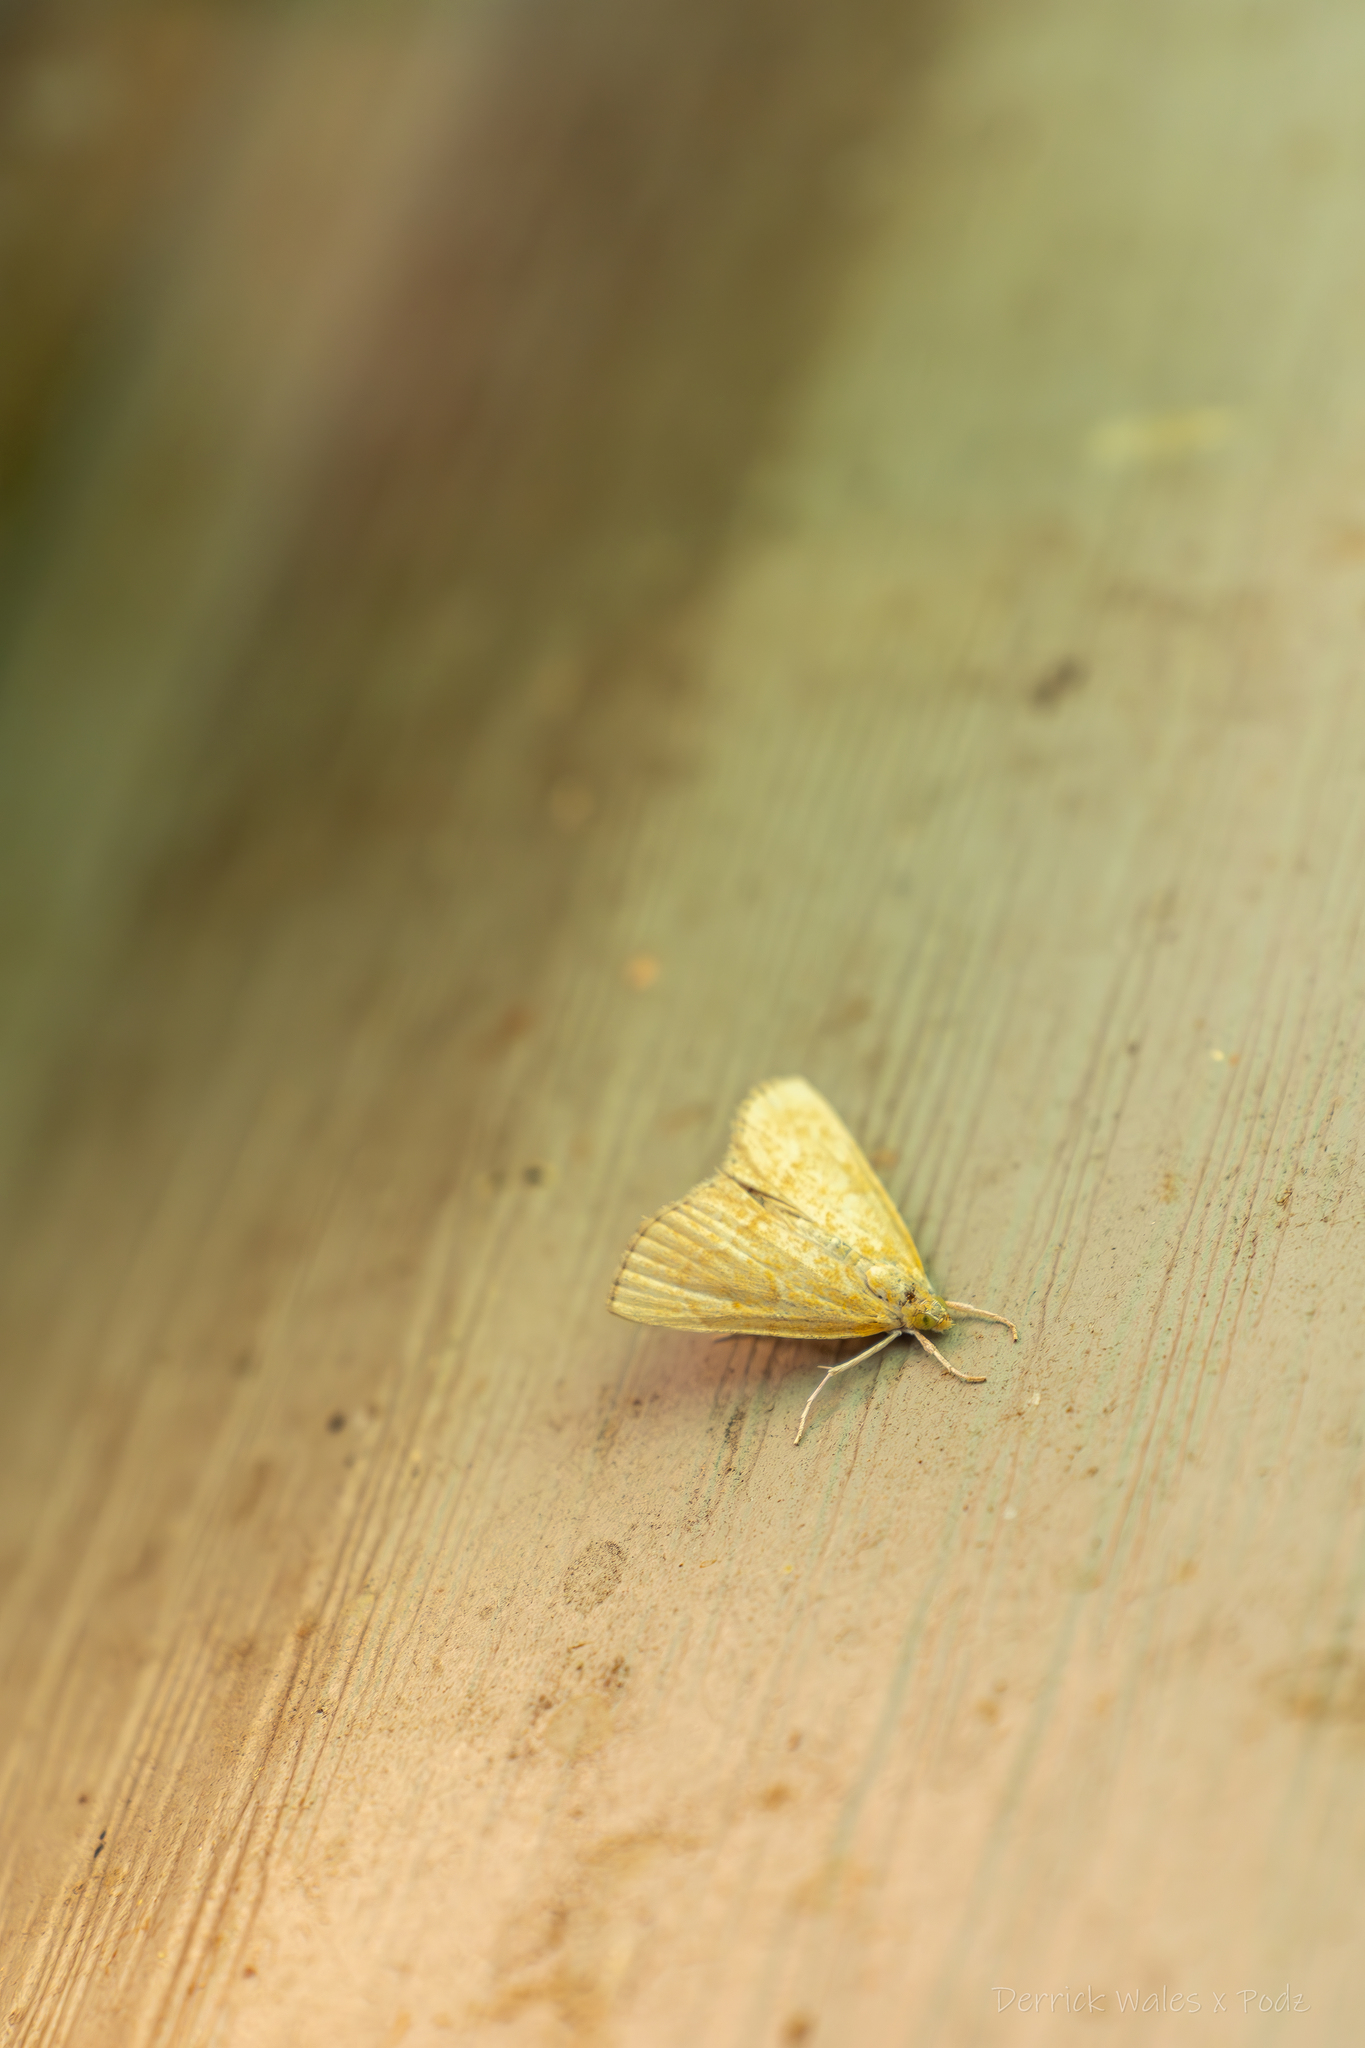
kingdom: Animalia
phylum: Arthropoda
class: Insecta
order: Lepidoptera
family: Crambidae
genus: Glaphyria
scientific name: Glaphyria invisalis
